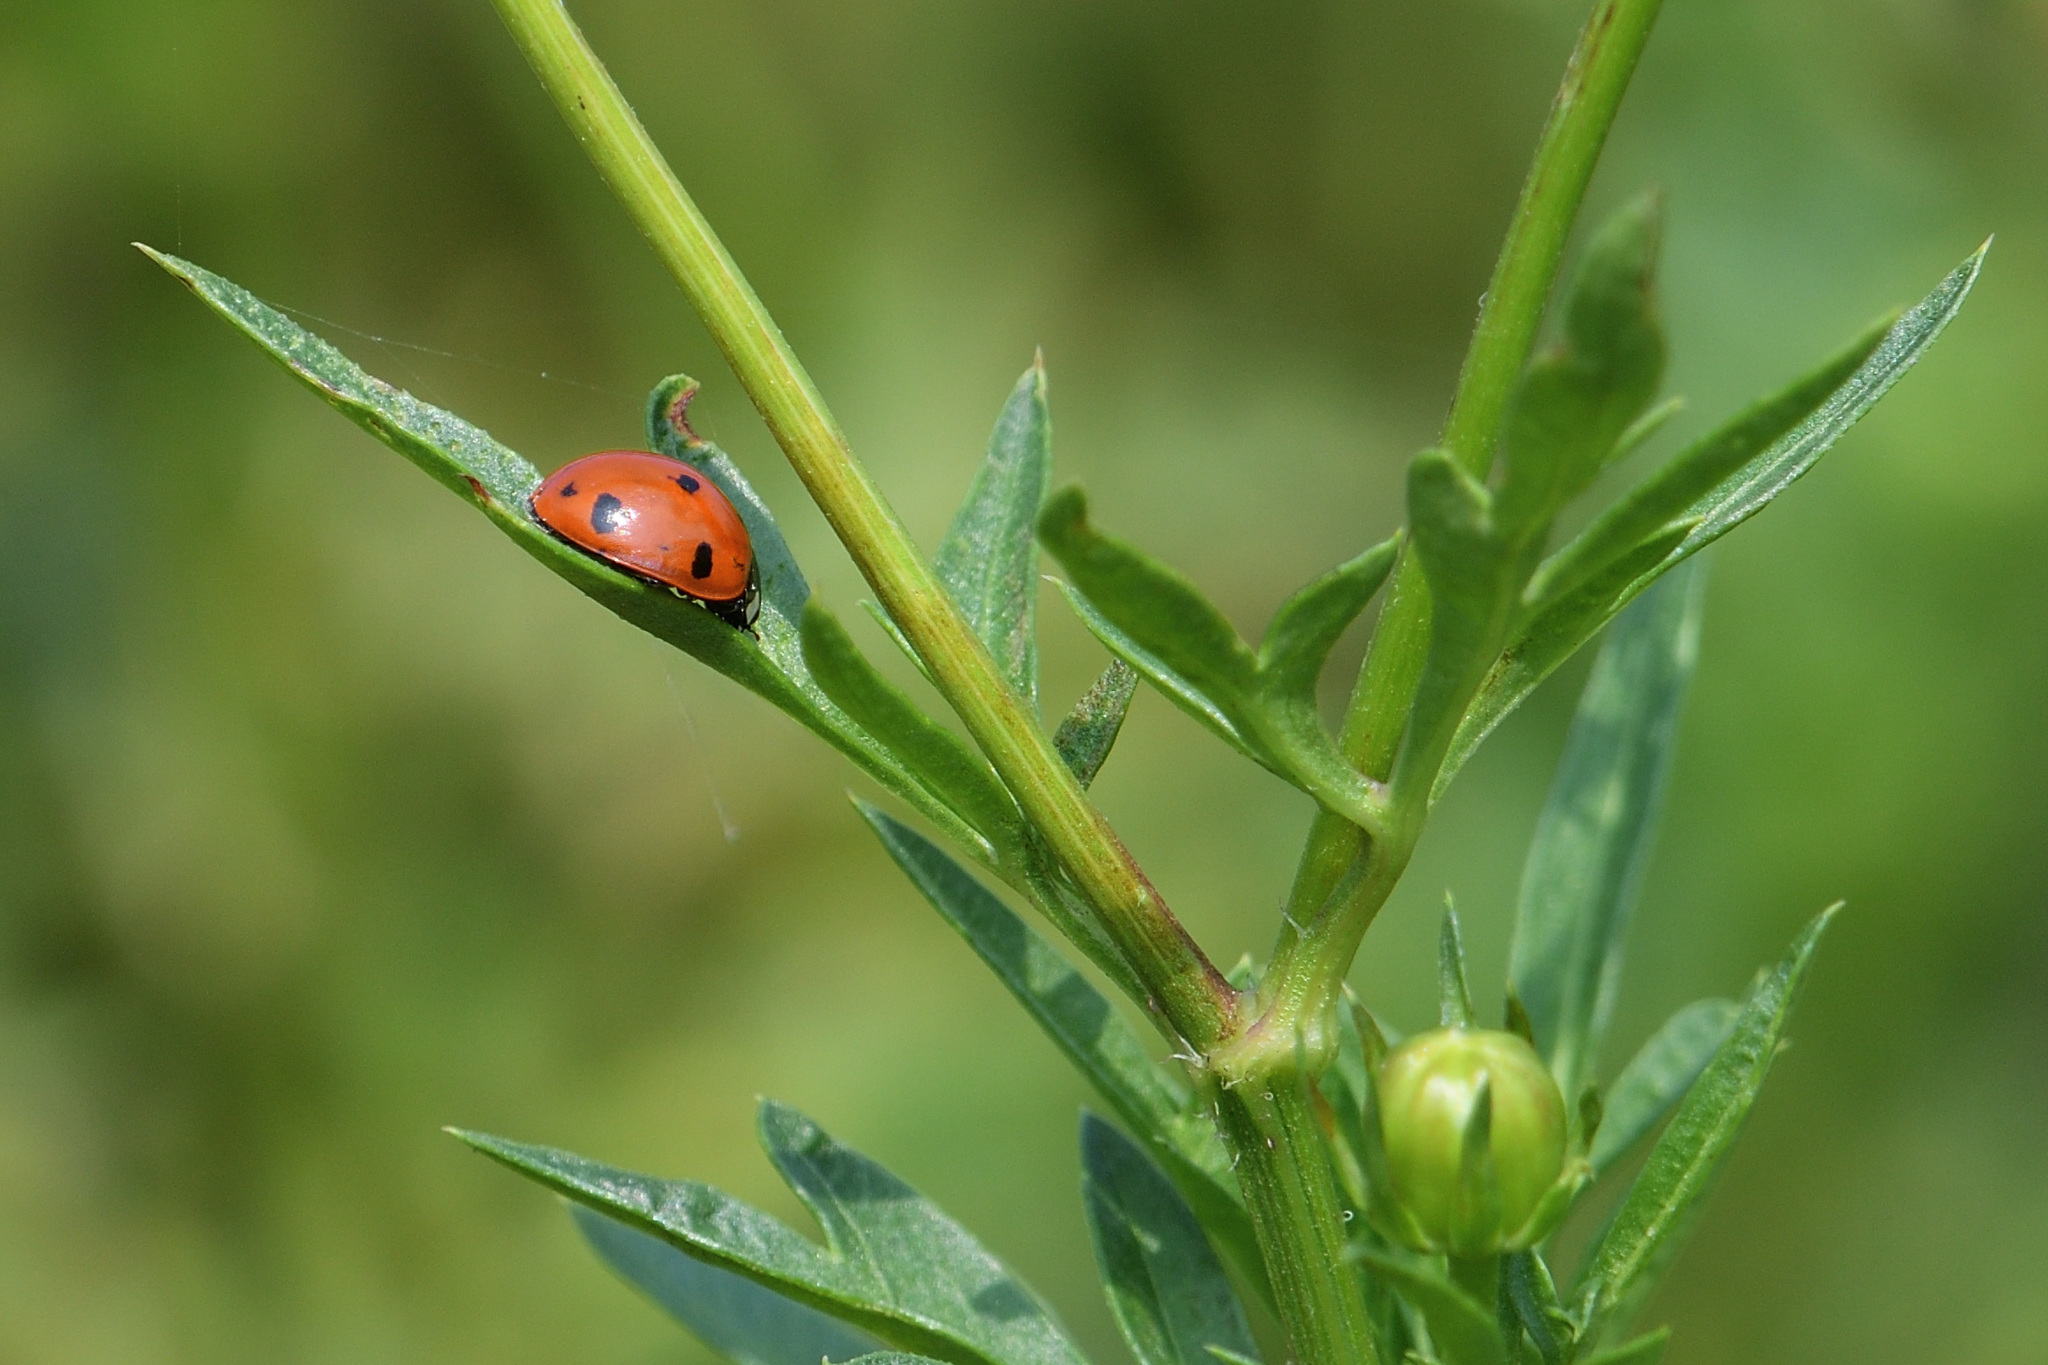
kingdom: Animalia
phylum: Arthropoda
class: Insecta
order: Coleoptera
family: Coccinellidae
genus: Coccinella
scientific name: Coccinella septempunctata
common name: Sevenspotted lady beetle
